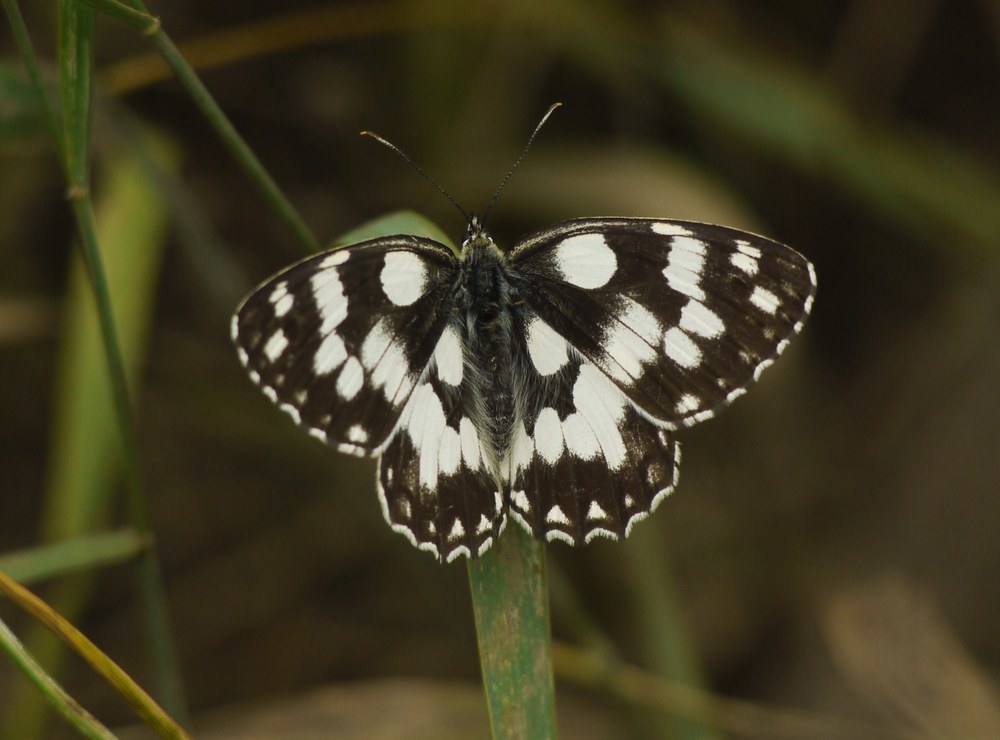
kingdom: Animalia
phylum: Arthropoda
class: Insecta
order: Lepidoptera
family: Nymphalidae
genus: Melanargia
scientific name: Melanargia galathea
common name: Marbled white
